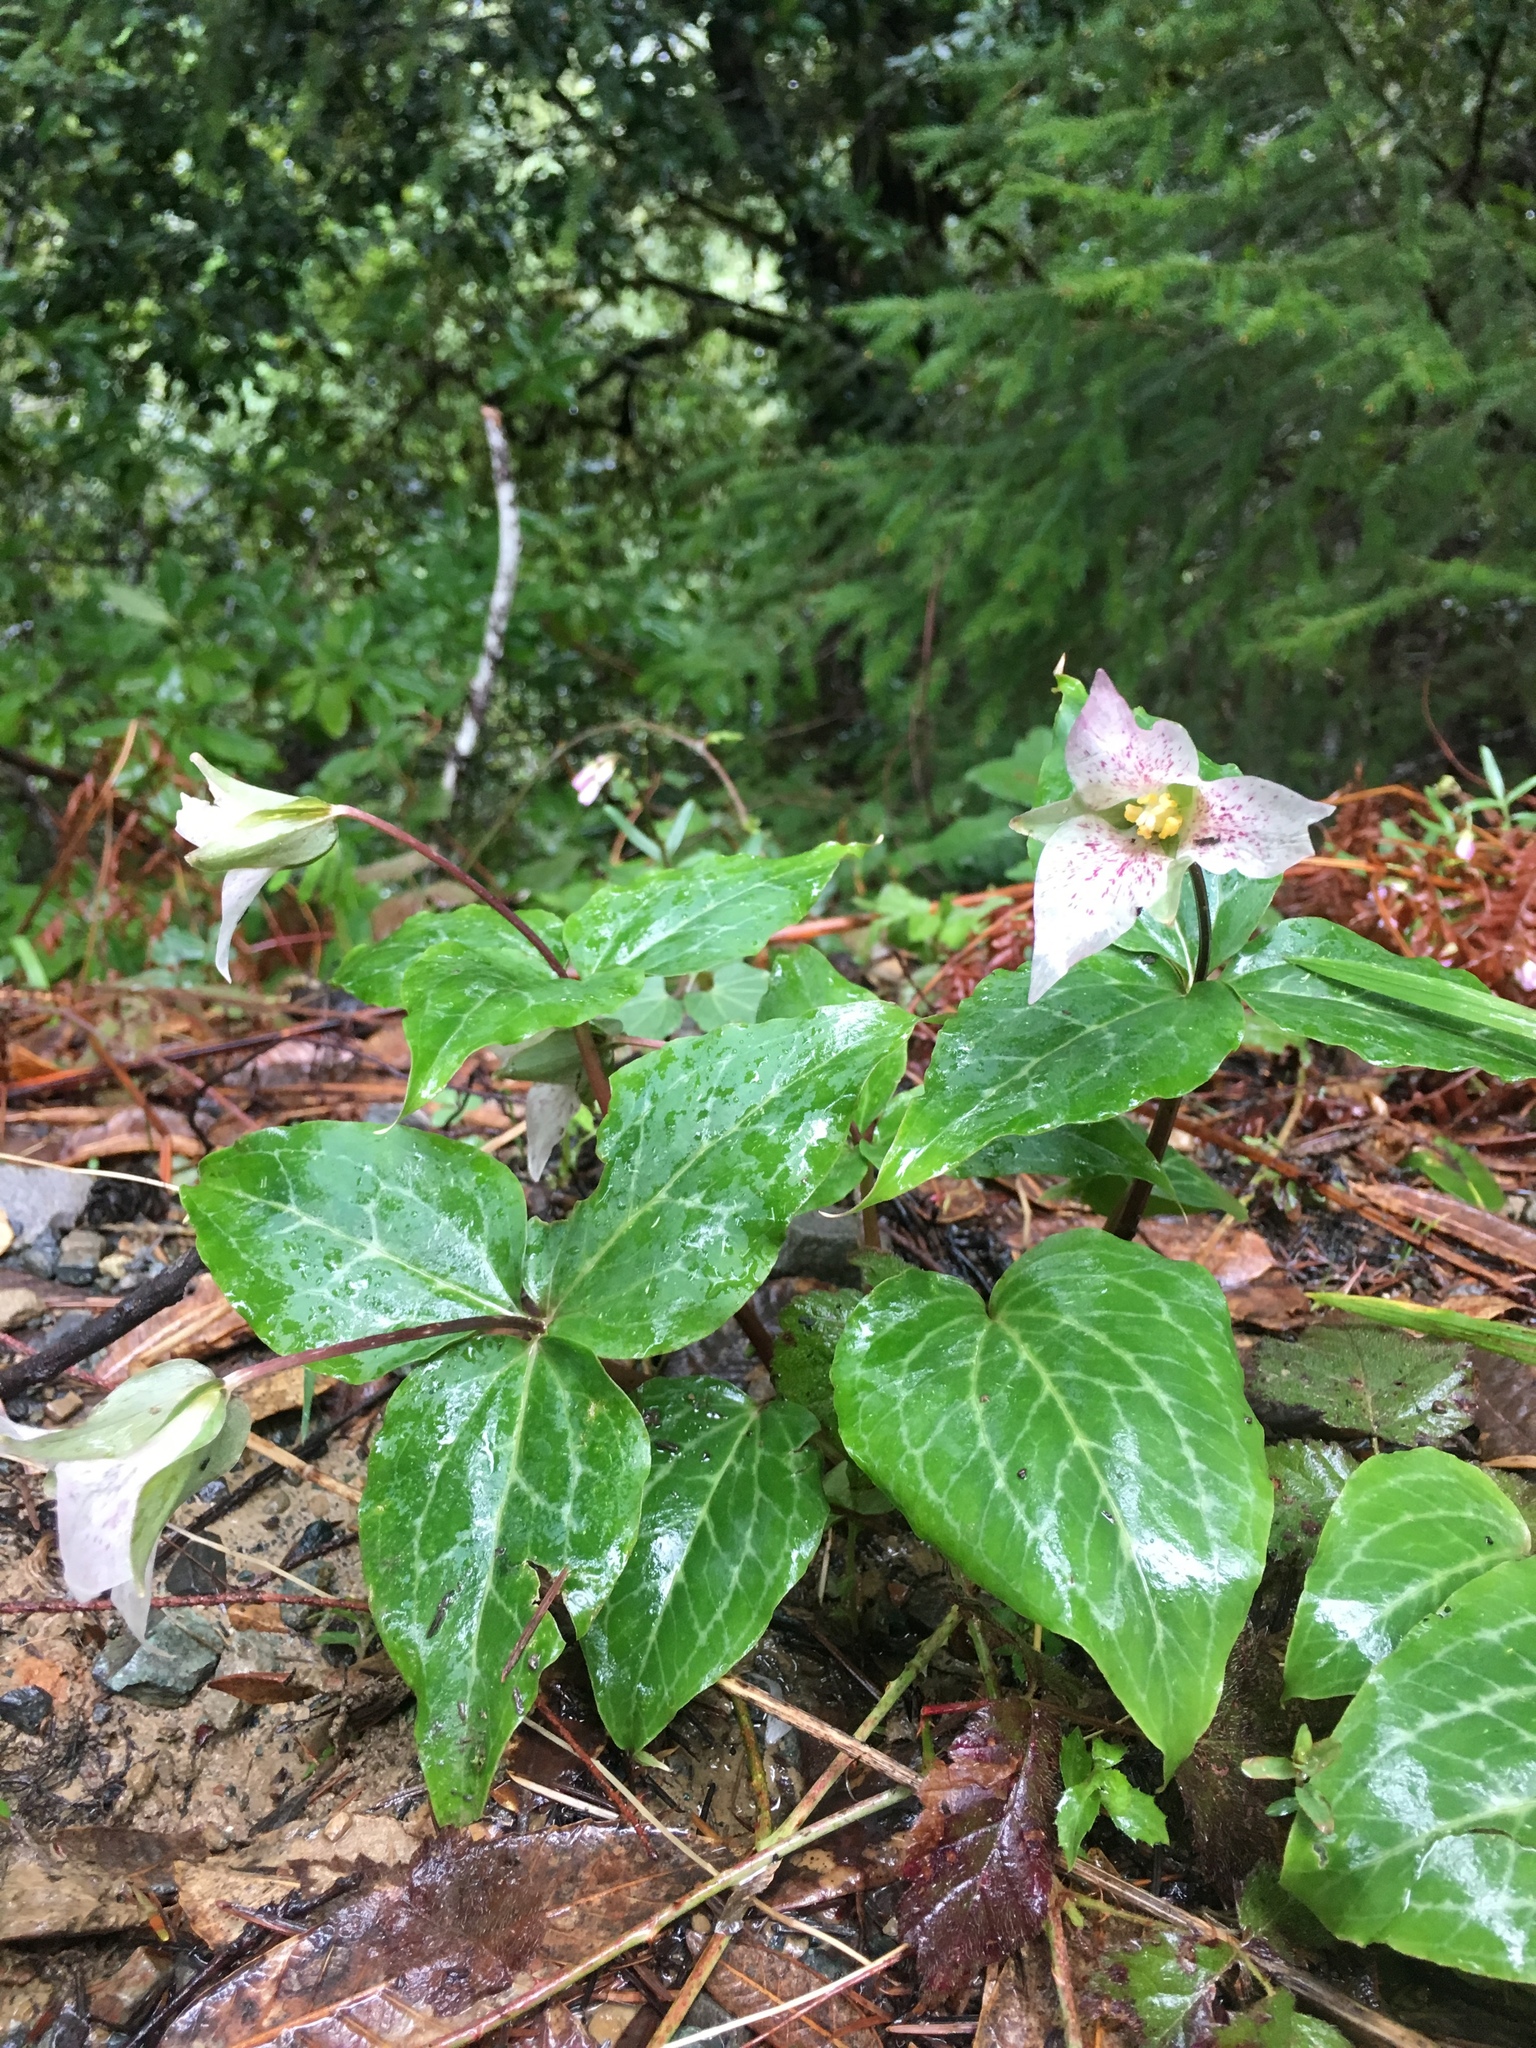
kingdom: Plantae
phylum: Tracheophyta
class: Liliopsida
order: Liliales
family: Melanthiaceae
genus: Pseudotrillium
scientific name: Pseudotrillium rivale
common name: Brook wakerobin
